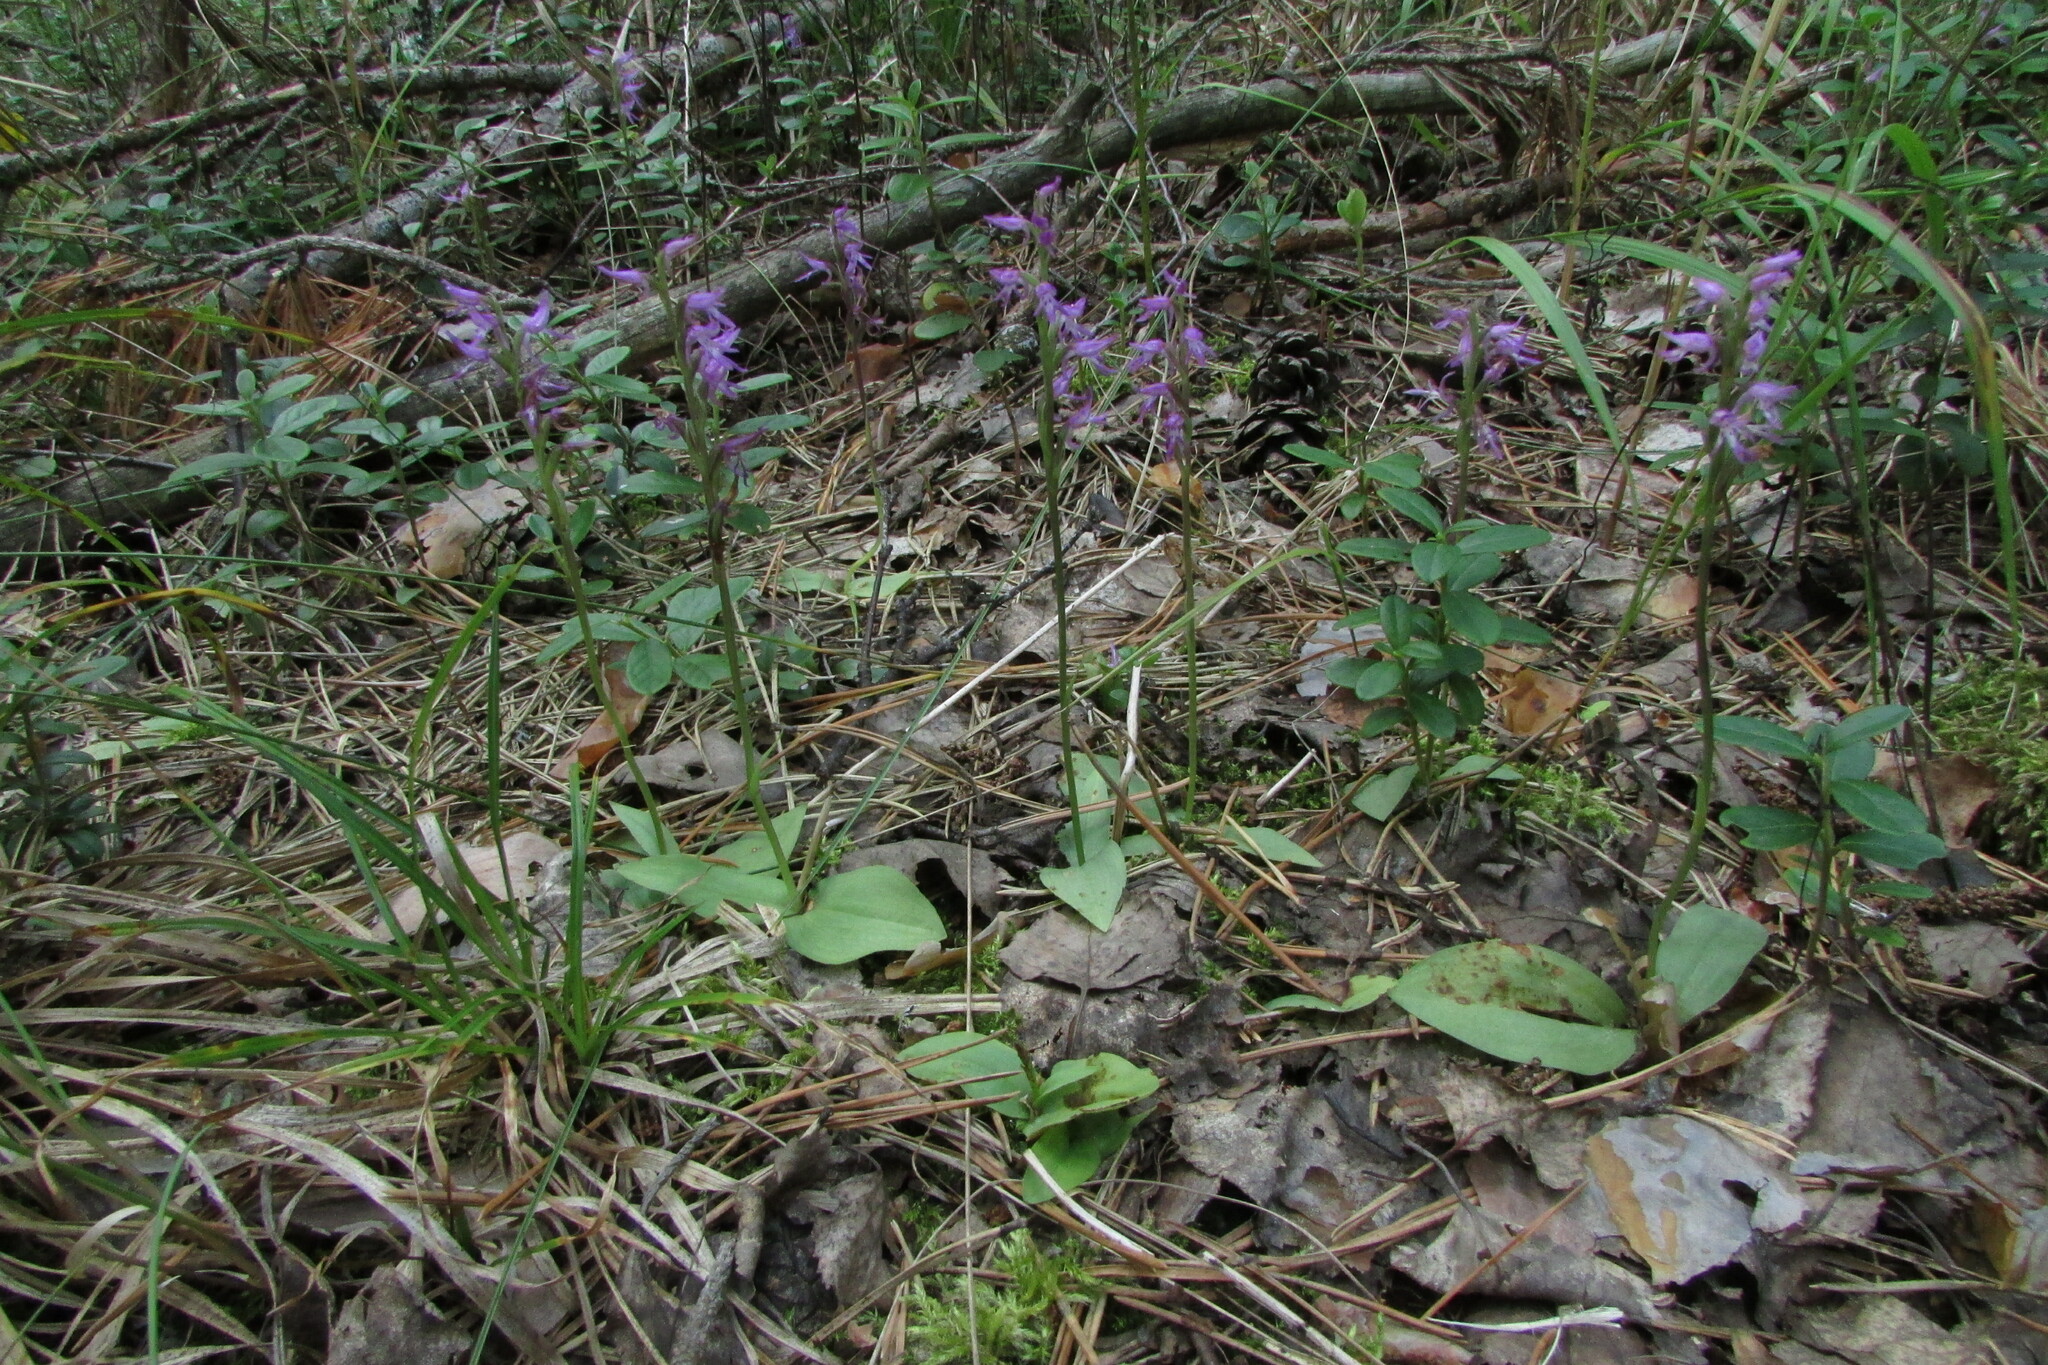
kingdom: Plantae
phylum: Tracheophyta
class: Liliopsida
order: Asparagales
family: Orchidaceae
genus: Hemipilia
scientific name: Hemipilia cucullata
